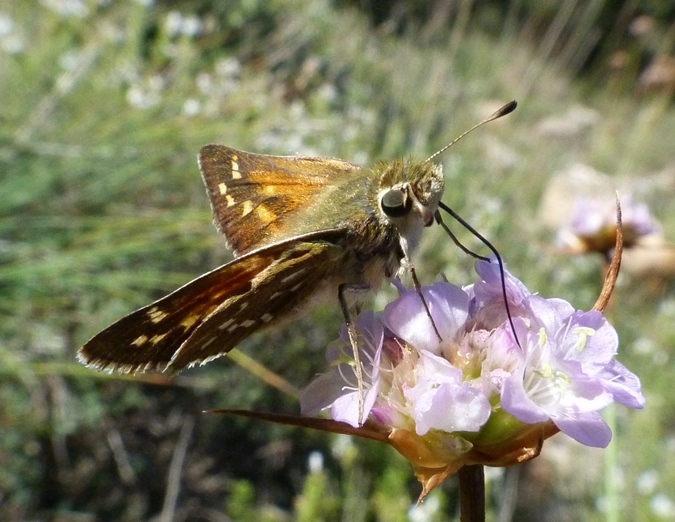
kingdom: Animalia
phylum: Arthropoda
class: Insecta
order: Lepidoptera
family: Hesperiidae
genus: Hesperia
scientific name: Hesperia comma
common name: Common branded skipper
